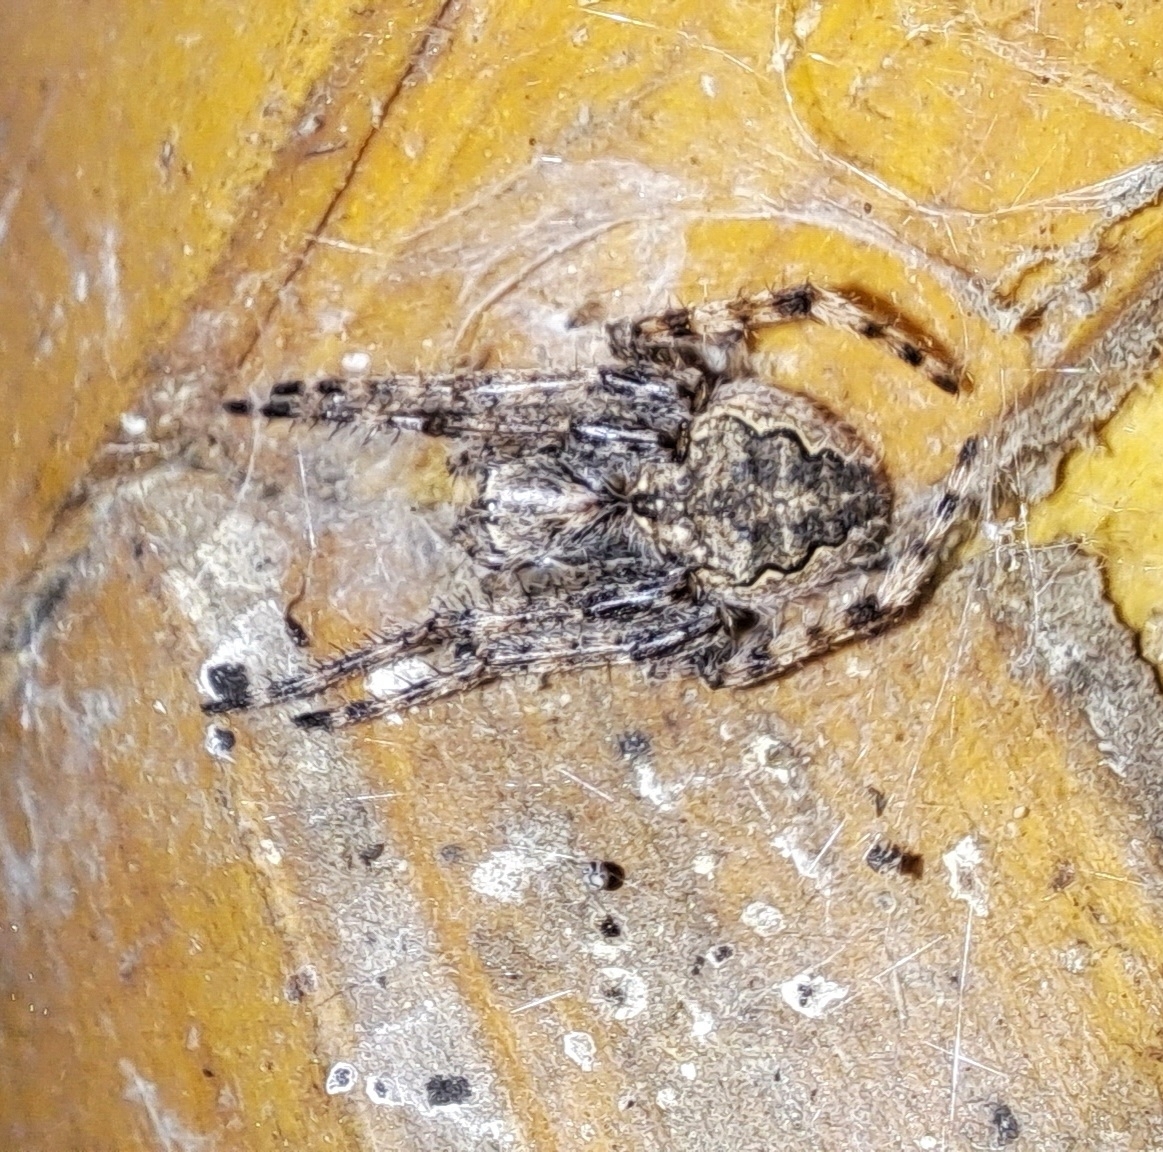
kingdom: Animalia
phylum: Arthropoda
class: Arachnida
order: Araneae
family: Araneidae
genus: Nuctenea
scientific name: Nuctenea umbratica
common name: Toad spider
